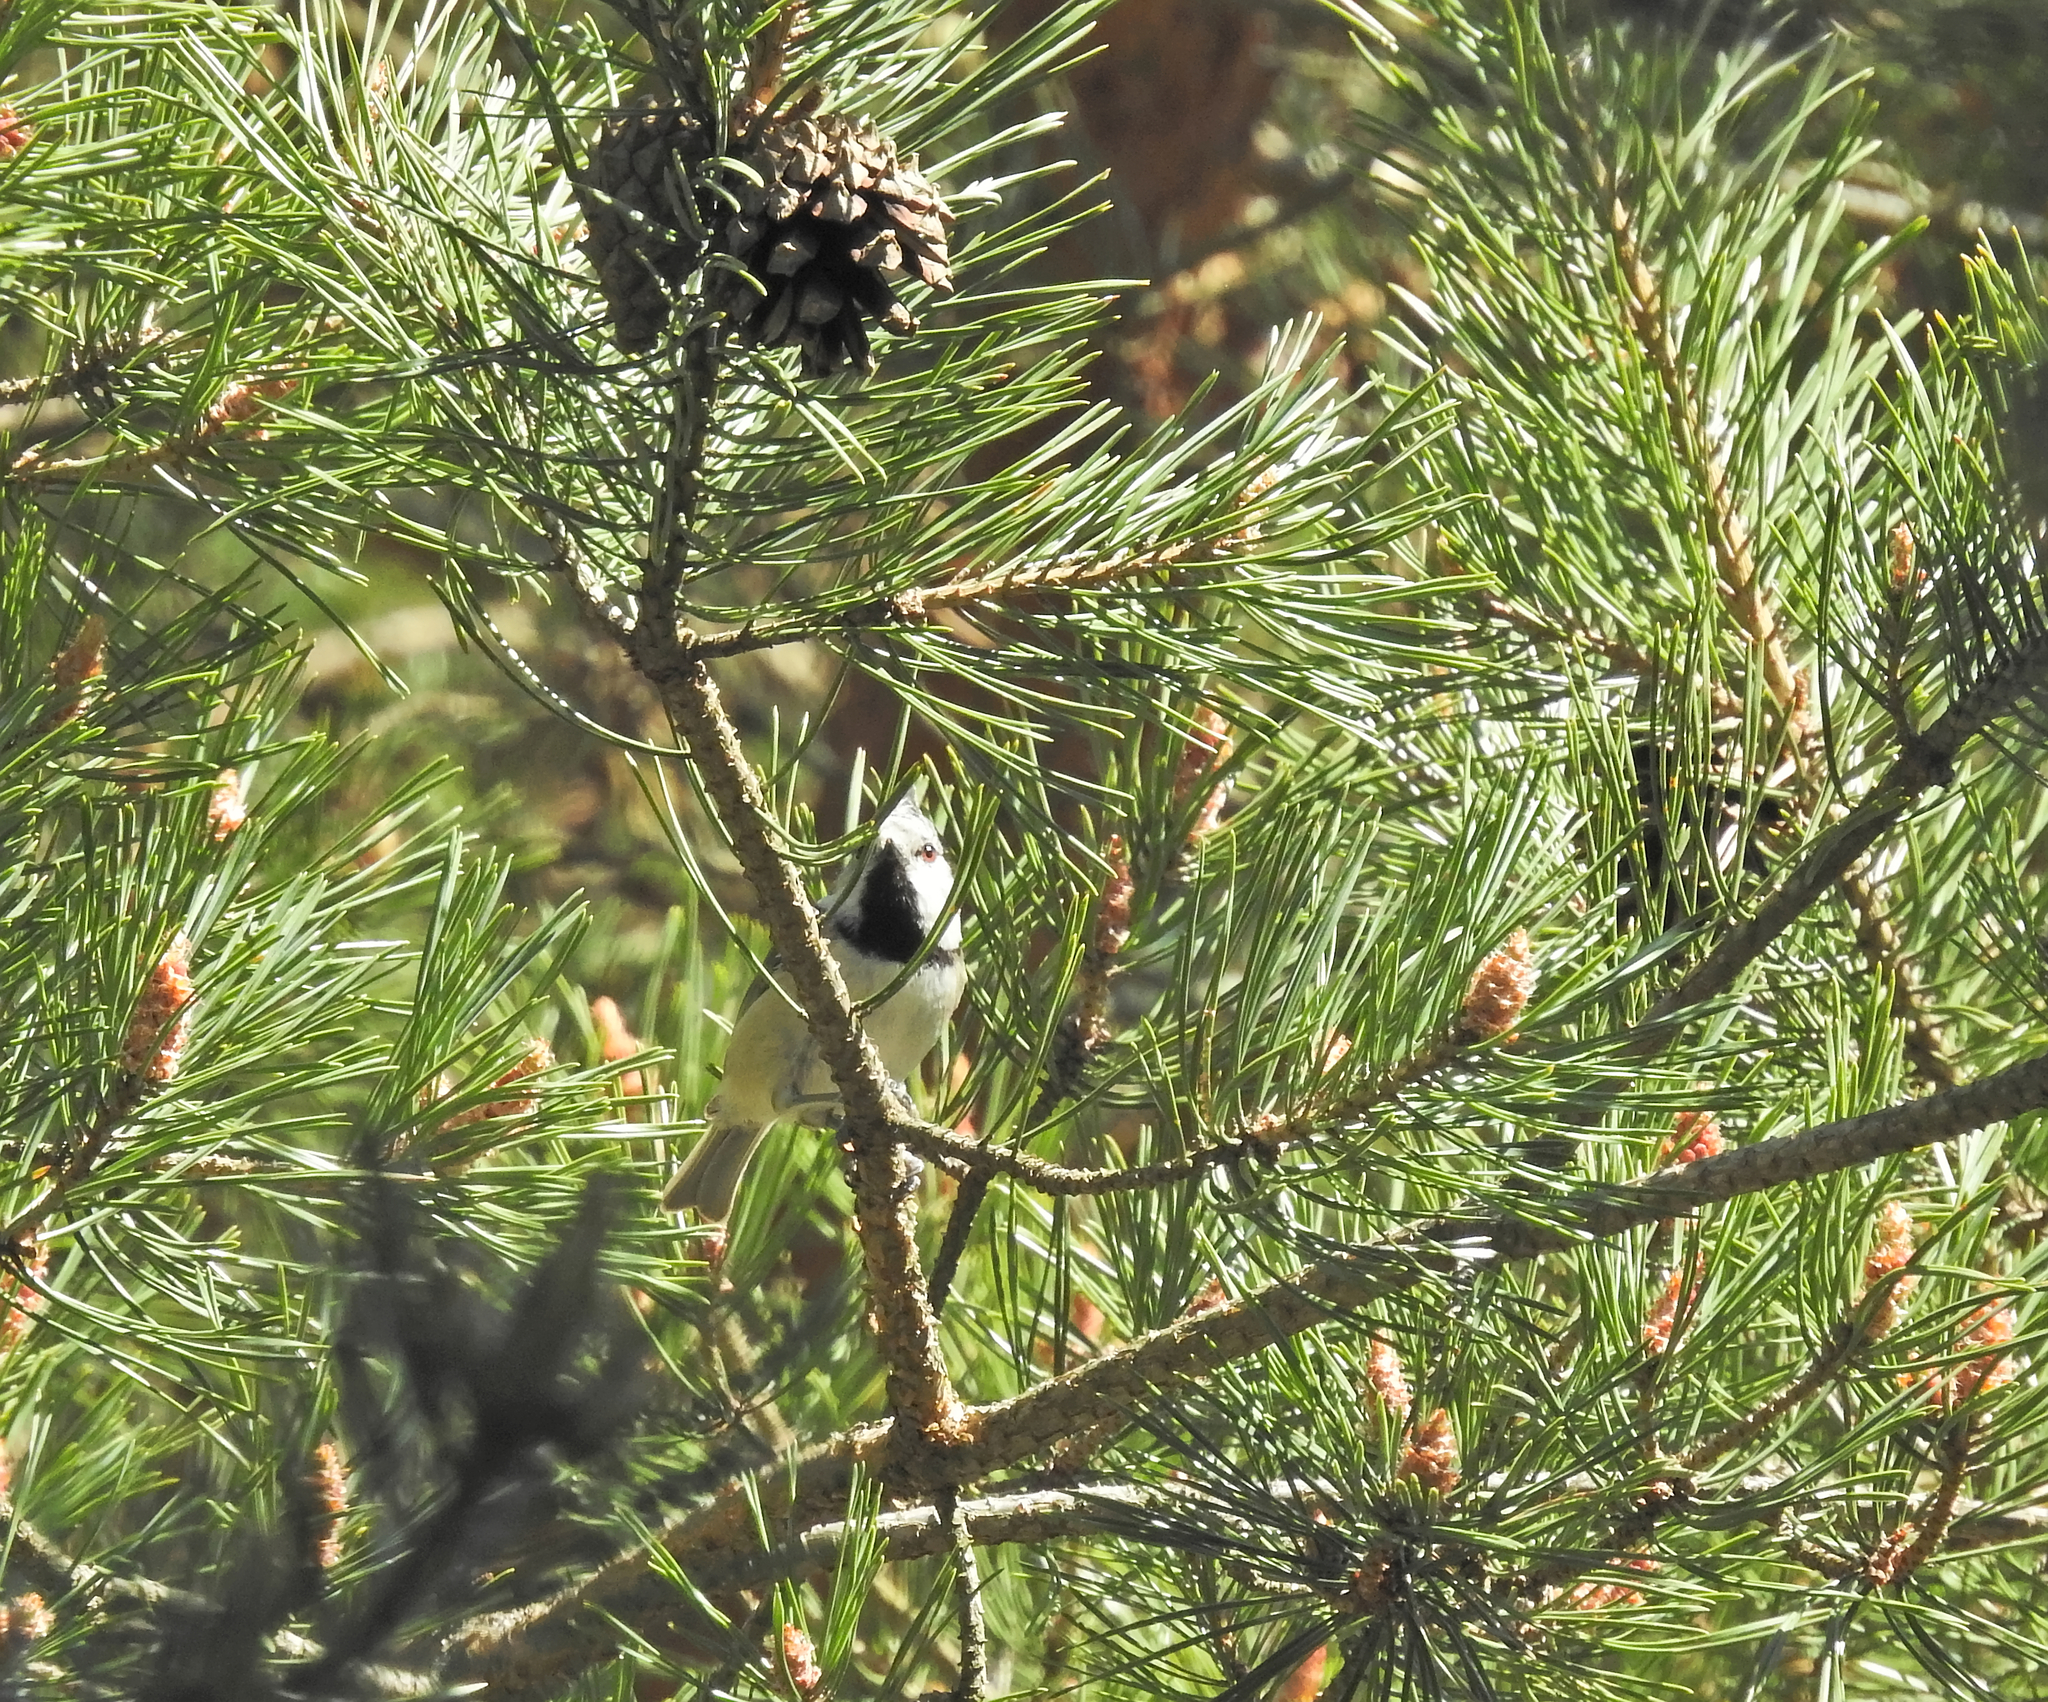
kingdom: Animalia
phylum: Chordata
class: Aves
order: Passeriformes
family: Paridae
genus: Lophophanes
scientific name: Lophophanes cristatus
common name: European crested tit
